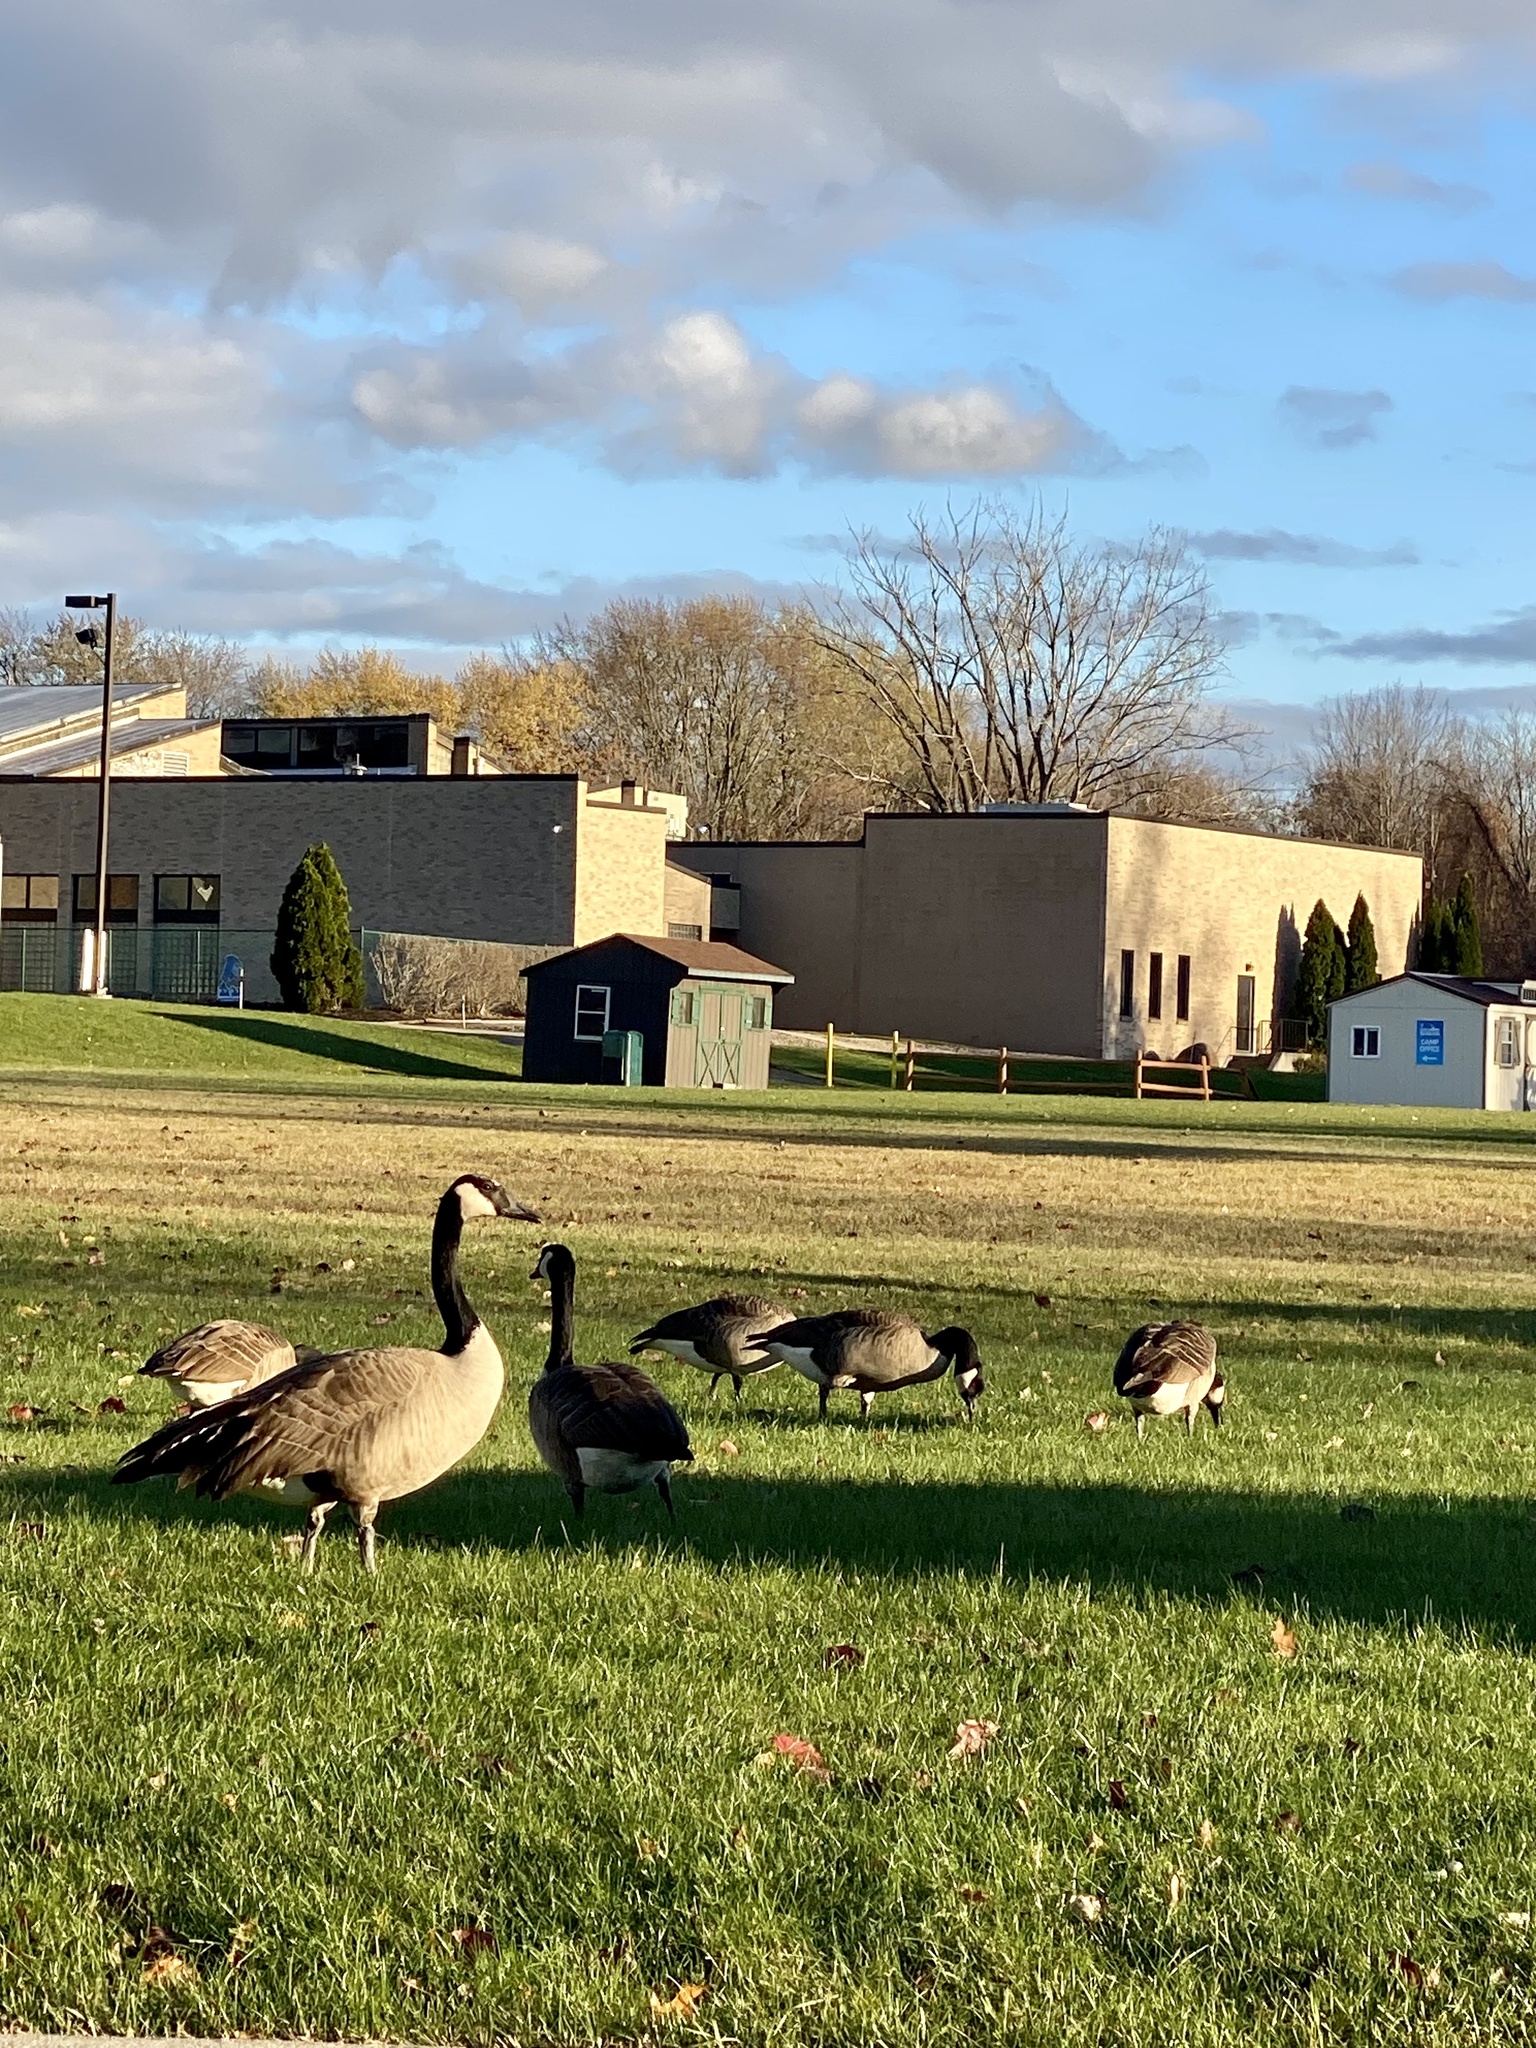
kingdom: Animalia
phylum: Chordata
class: Aves
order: Anseriformes
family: Anatidae
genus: Branta
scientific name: Branta canadensis
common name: Canada goose
